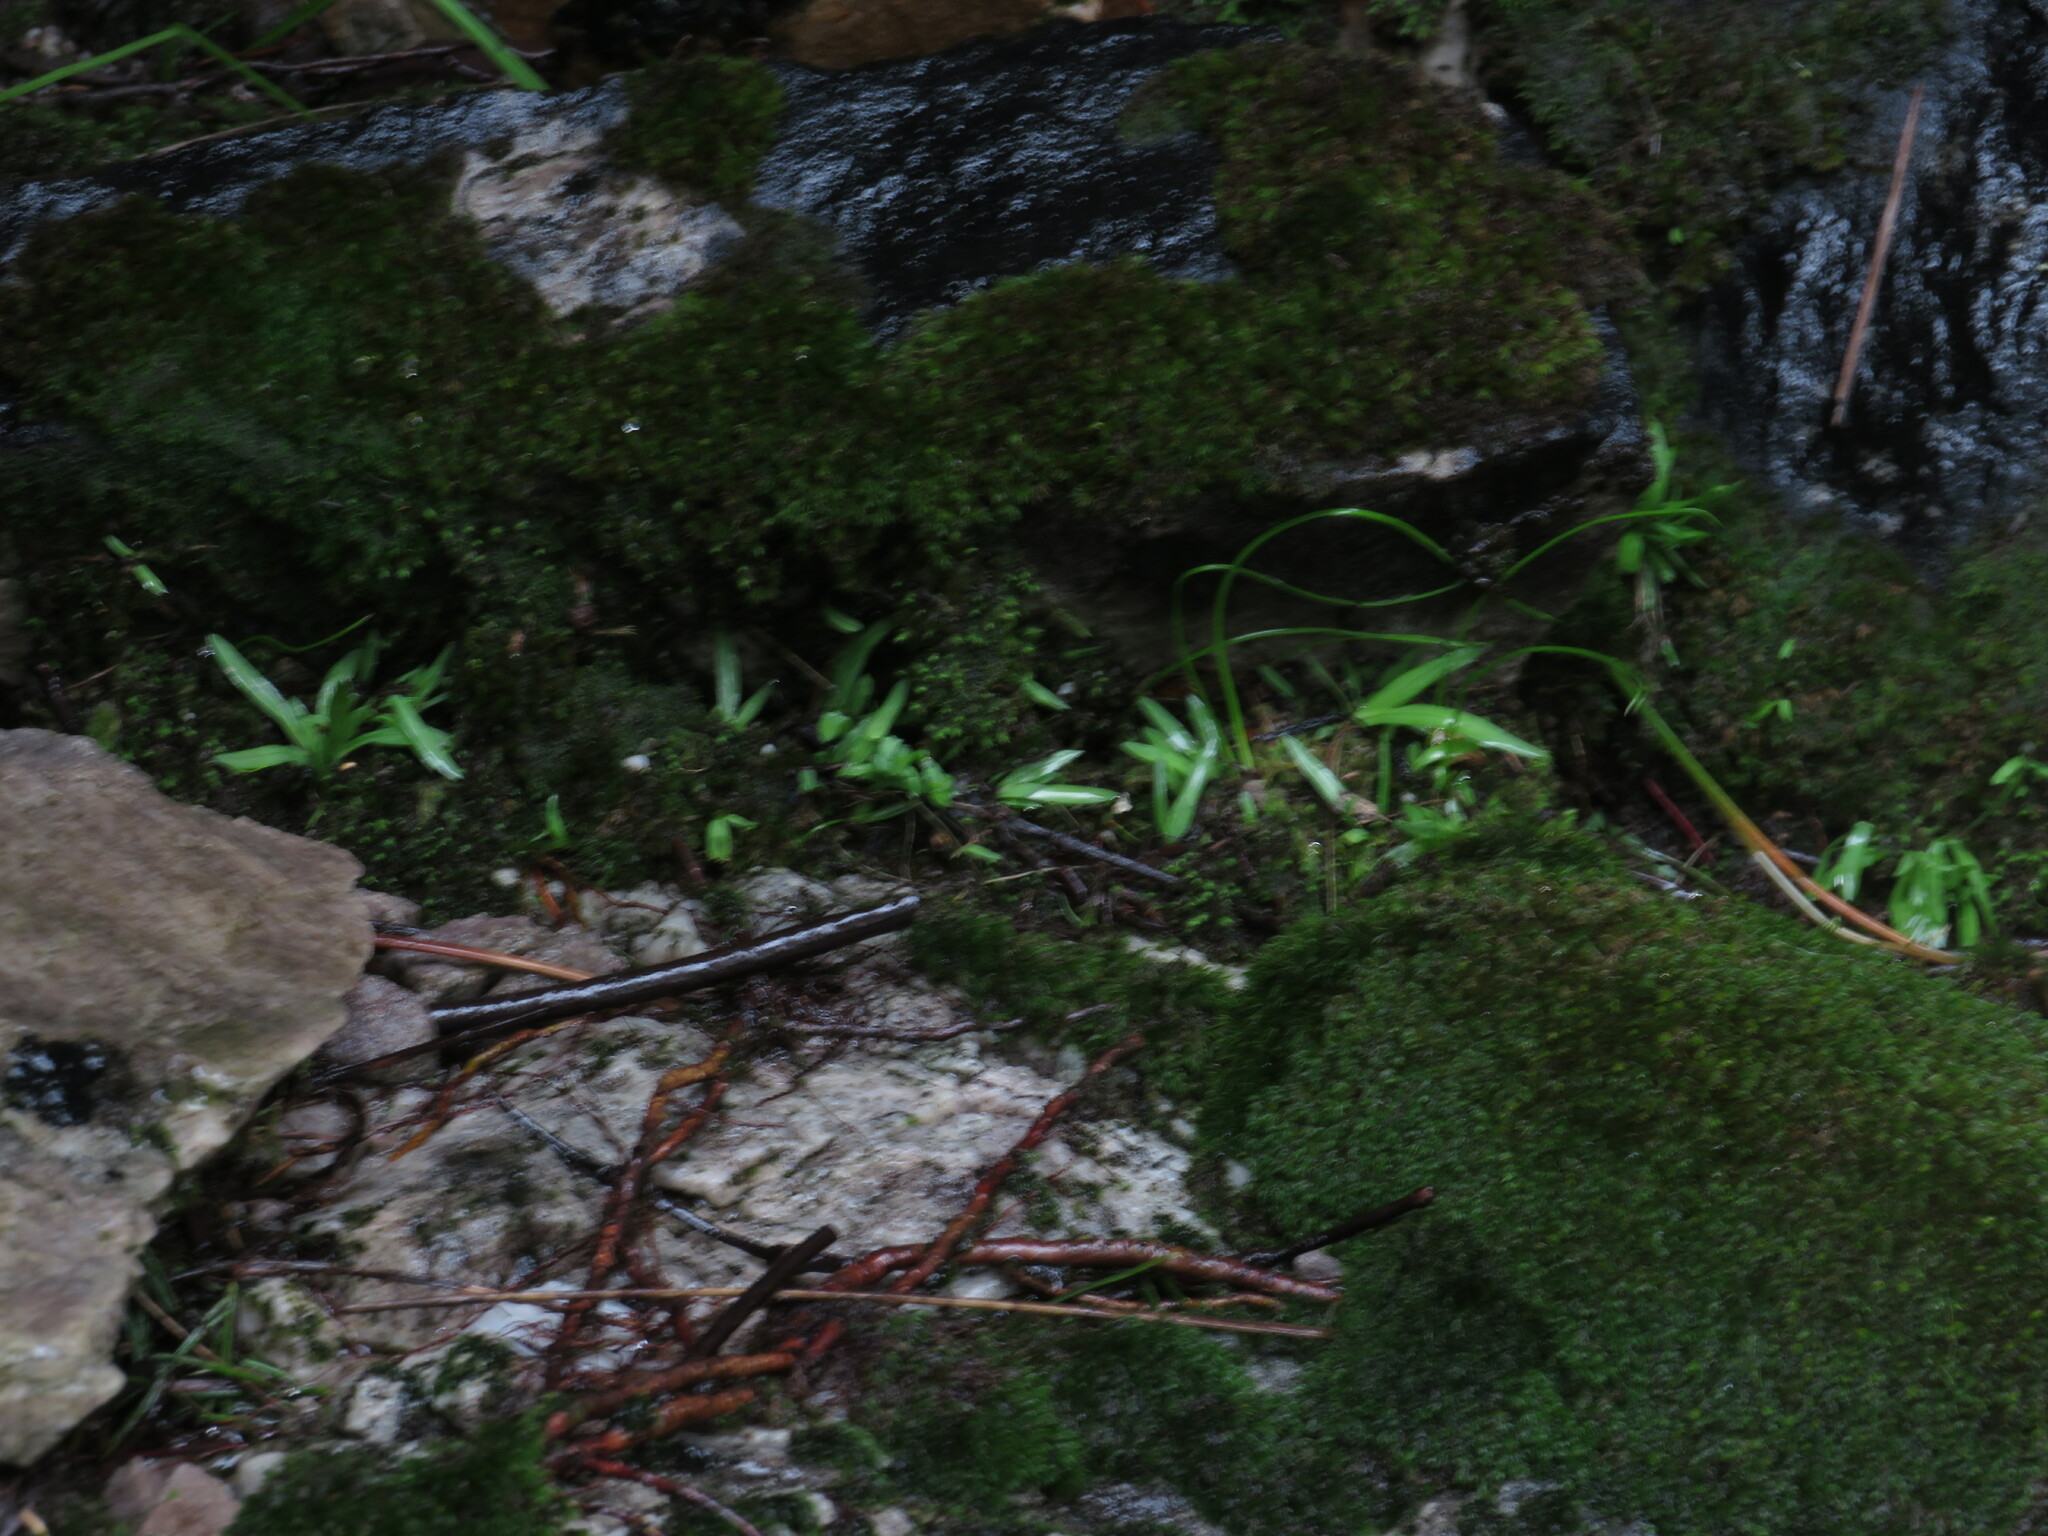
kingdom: Plantae
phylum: Bryophyta
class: Bryopsida
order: Dicranales
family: Dicranaceae
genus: Leucoloma
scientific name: Leucoloma sprengelianum
